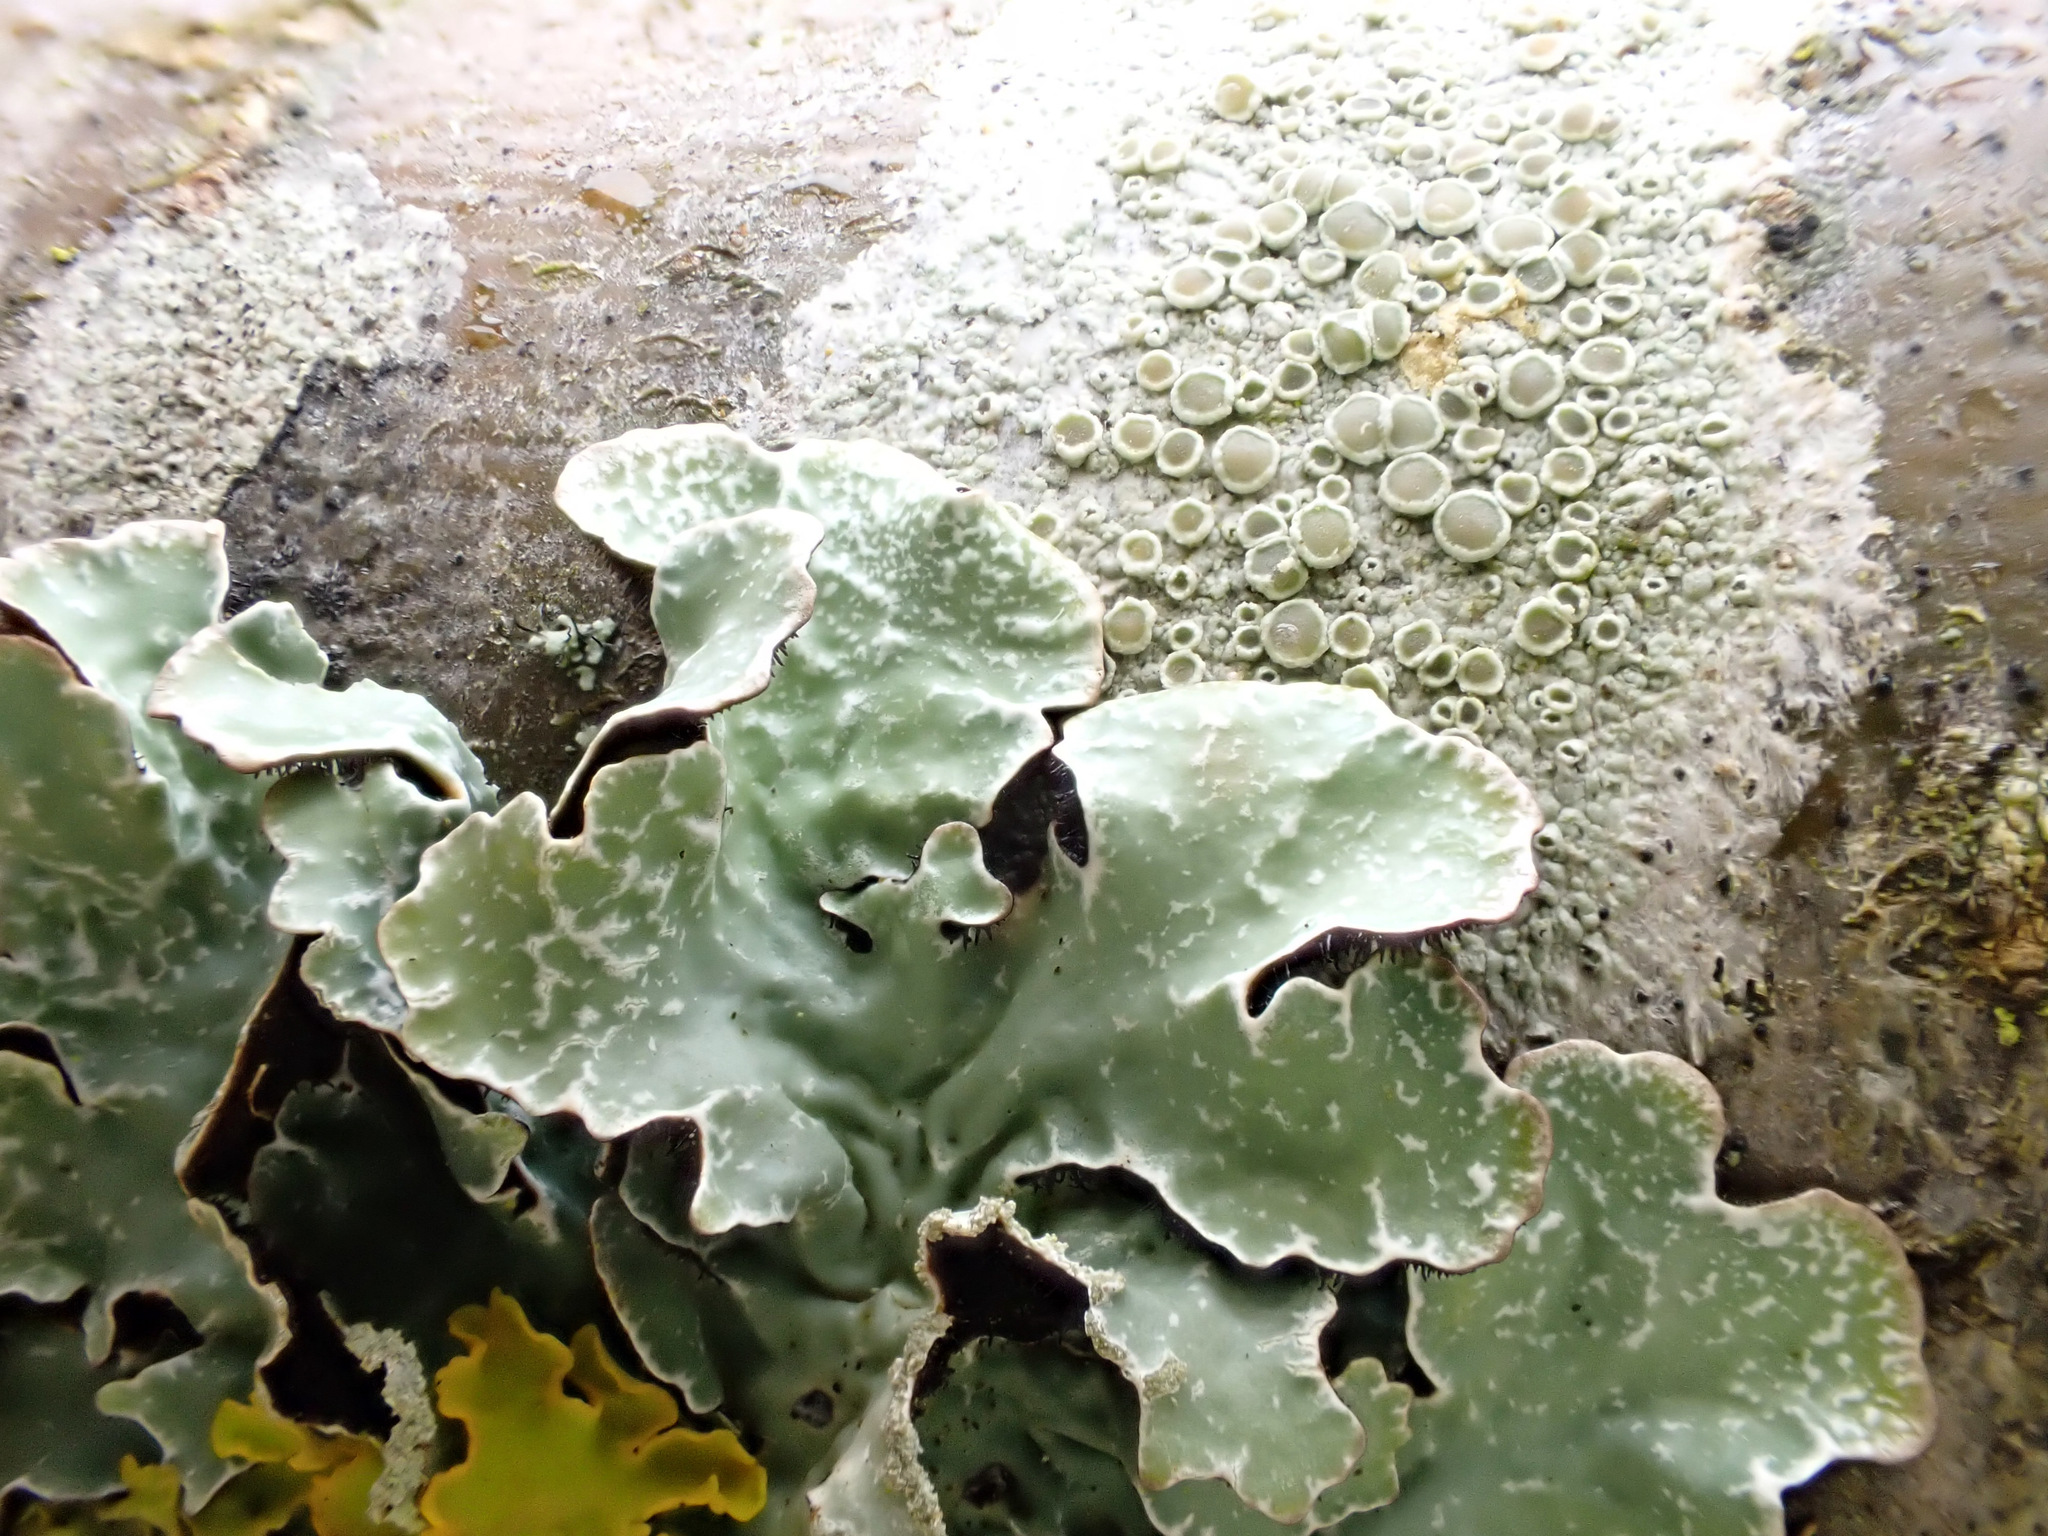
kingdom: Fungi
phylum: Ascomycota
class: Lecanoromycetes
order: Lecanorales
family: Parmeliaceae
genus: Parmelia
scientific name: Parmelia sulcata
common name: Netted shield lichen
